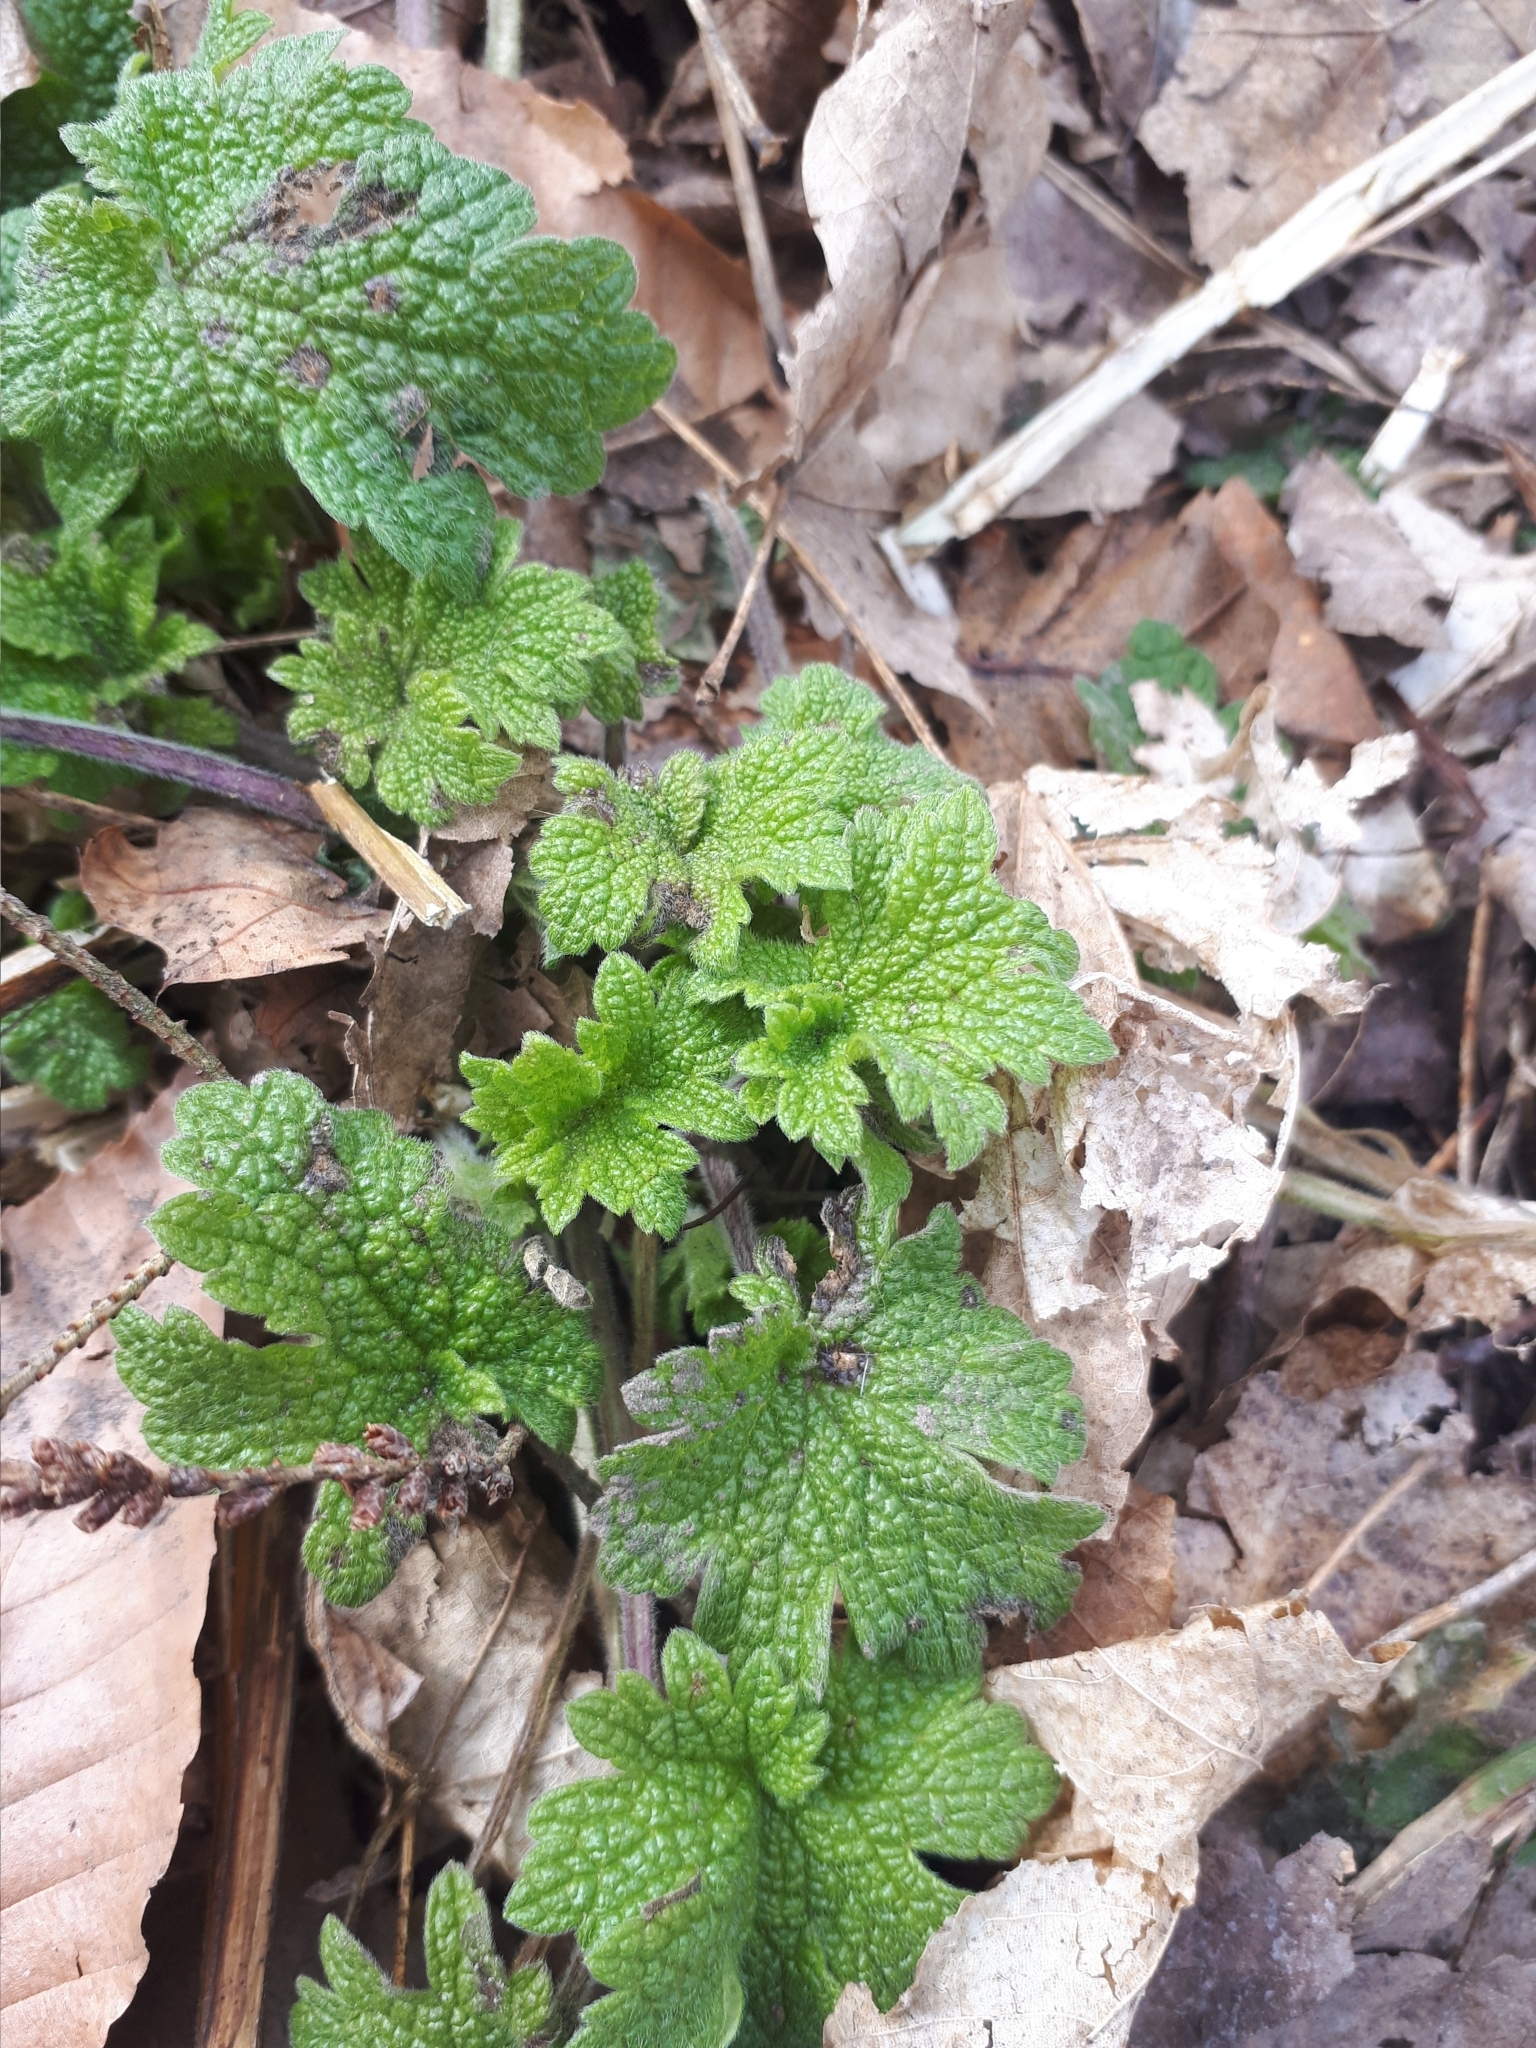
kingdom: Plantae
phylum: Tracheophyta
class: Magnoliopsida
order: Lamiales
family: Lamiaceae
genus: Leonurus
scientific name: Leonurus cardiaca
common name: Motherwort
